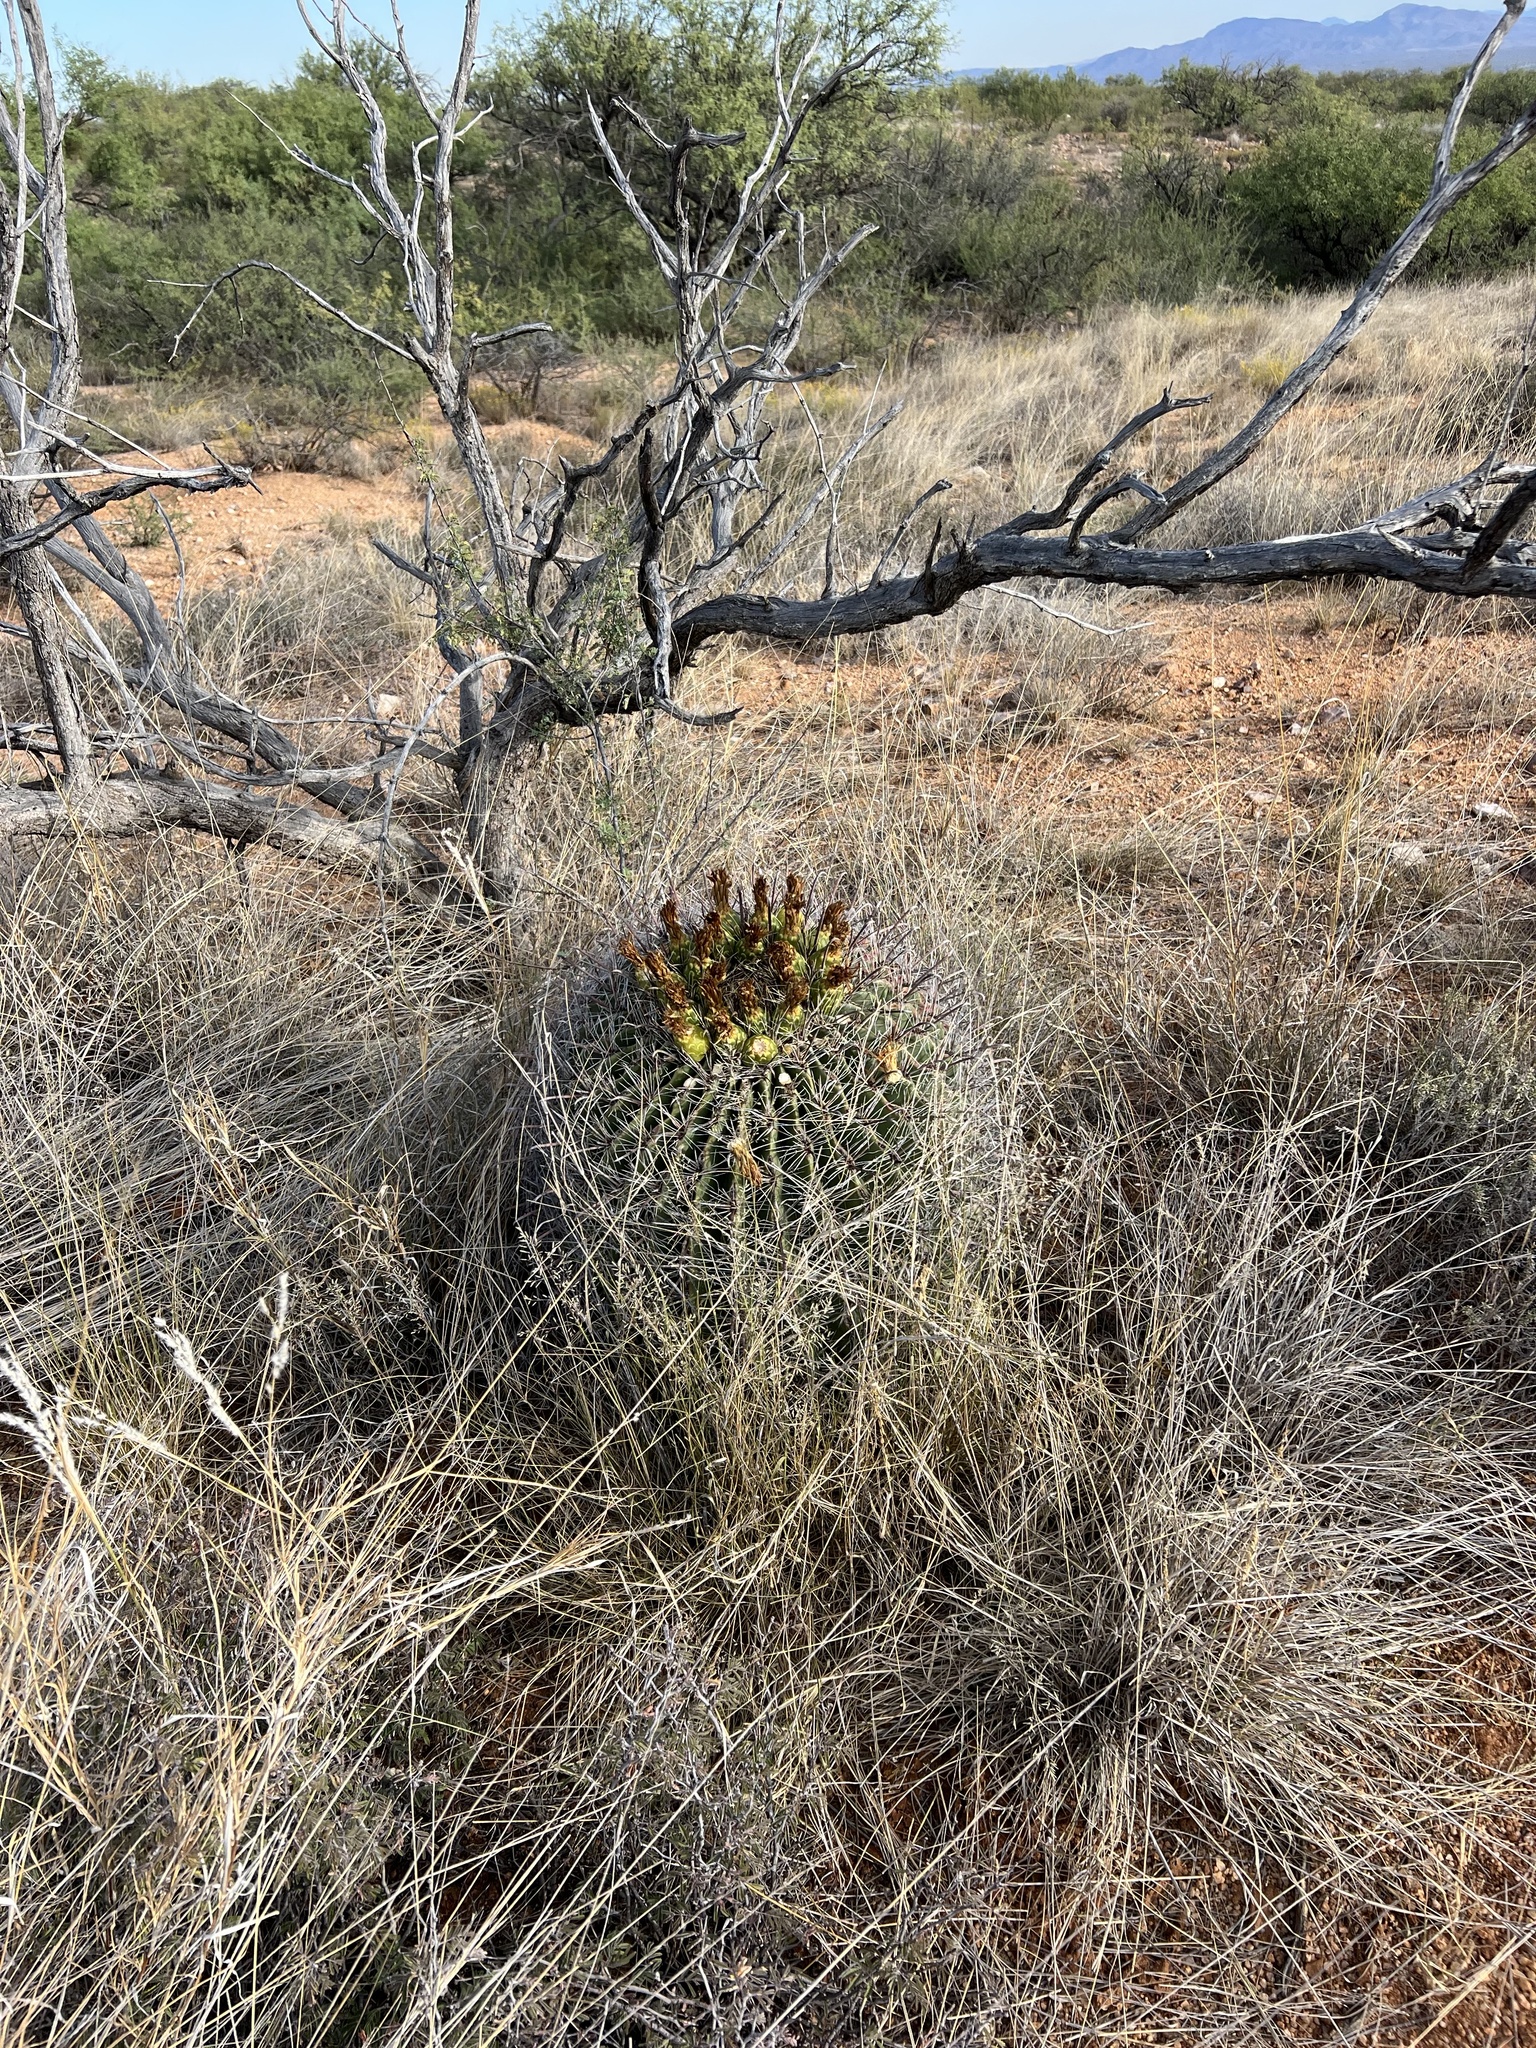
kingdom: Plantae
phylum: Tracheophyta
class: Magnoliopsida
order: Caryophyllales
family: Cactaceae
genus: Ferocactus
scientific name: Ferocactus wislizeni
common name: Candy barrel cactus
